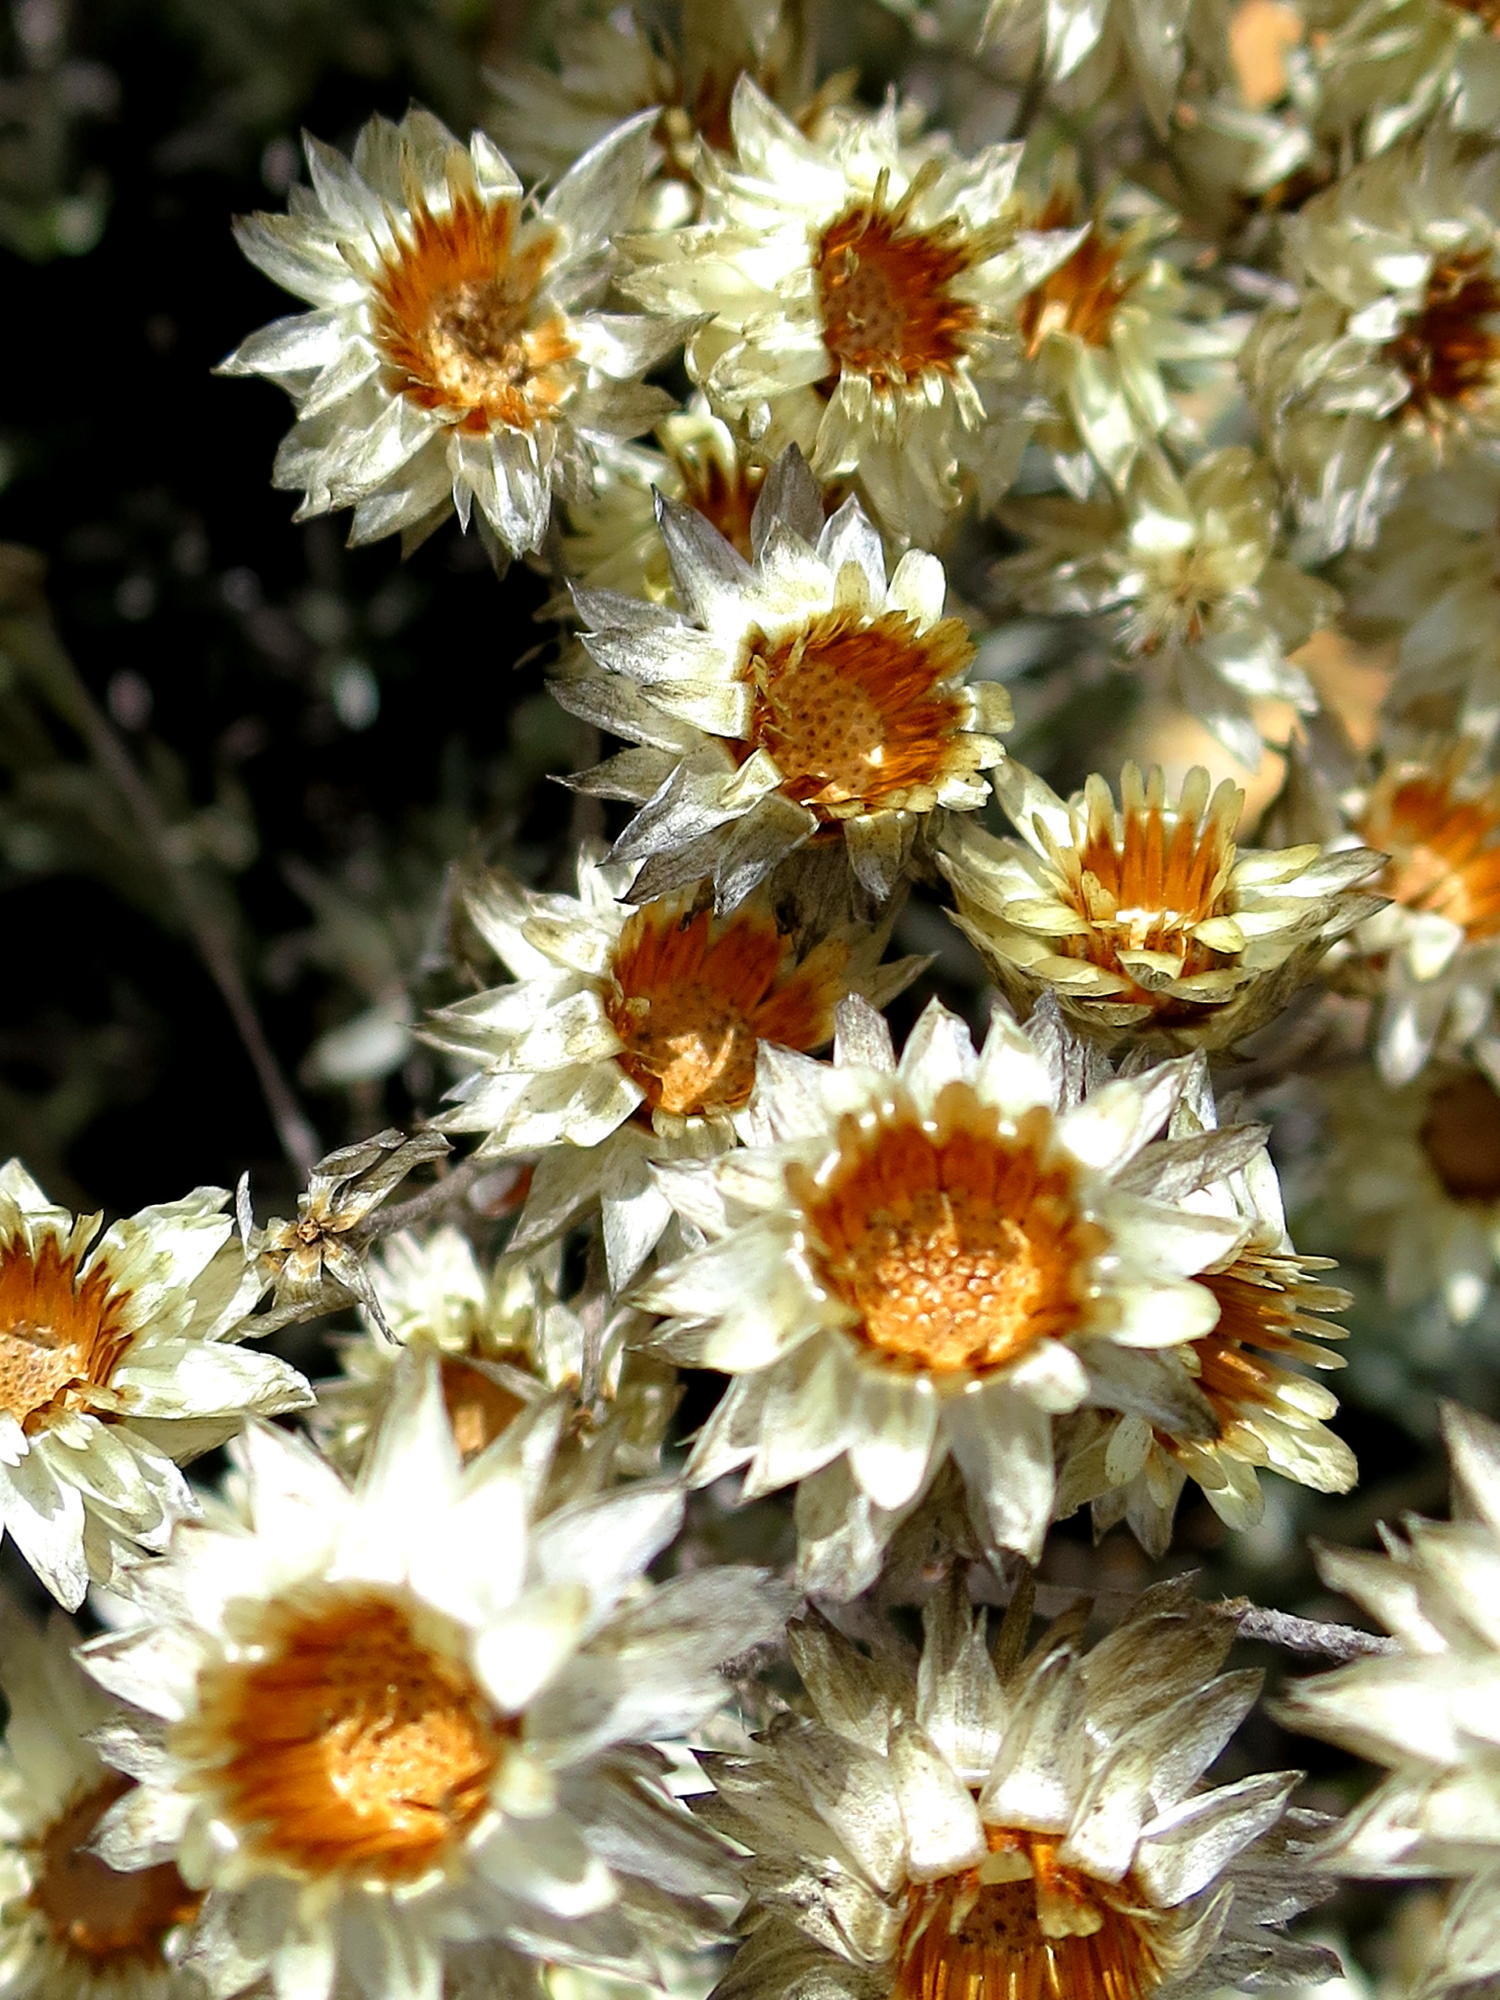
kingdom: Plantae
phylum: Tracheophyta
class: Magnoliopsida
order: Asterales
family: Asteraceae
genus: Achyranthemum
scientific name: Achyranthemum paniculatum
